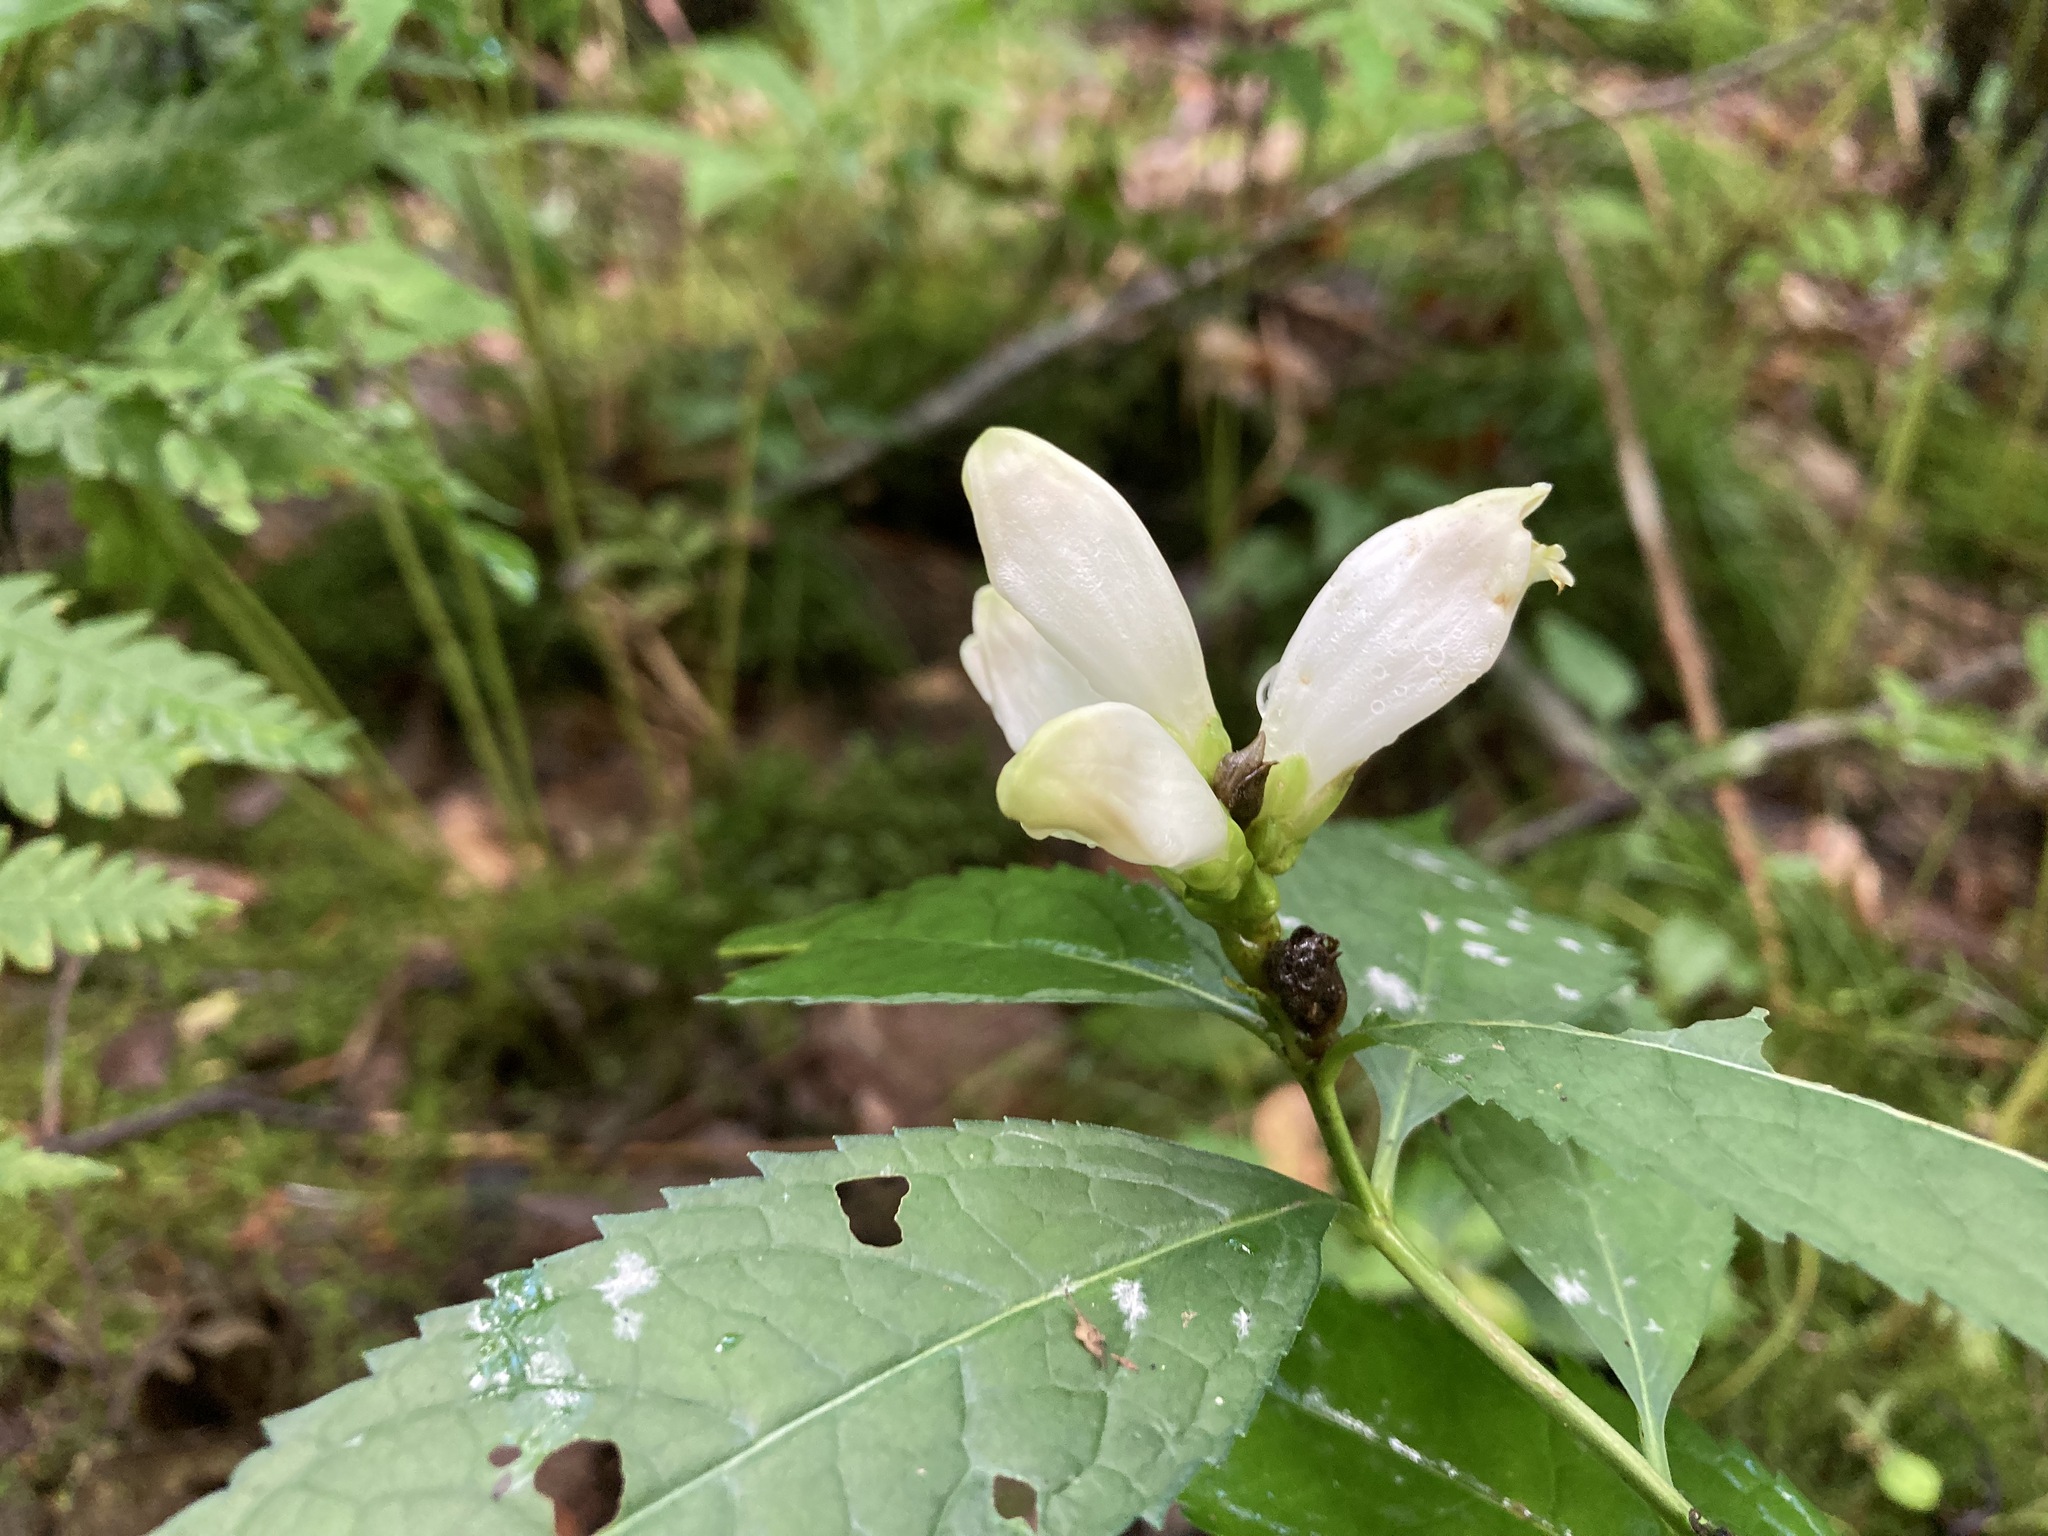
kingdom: Plantae
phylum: Tracheophyta
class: Magnoliopsida
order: Lamiales
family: Plantaginaceae
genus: Chelone
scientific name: Chelone glabra
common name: Snakehead
